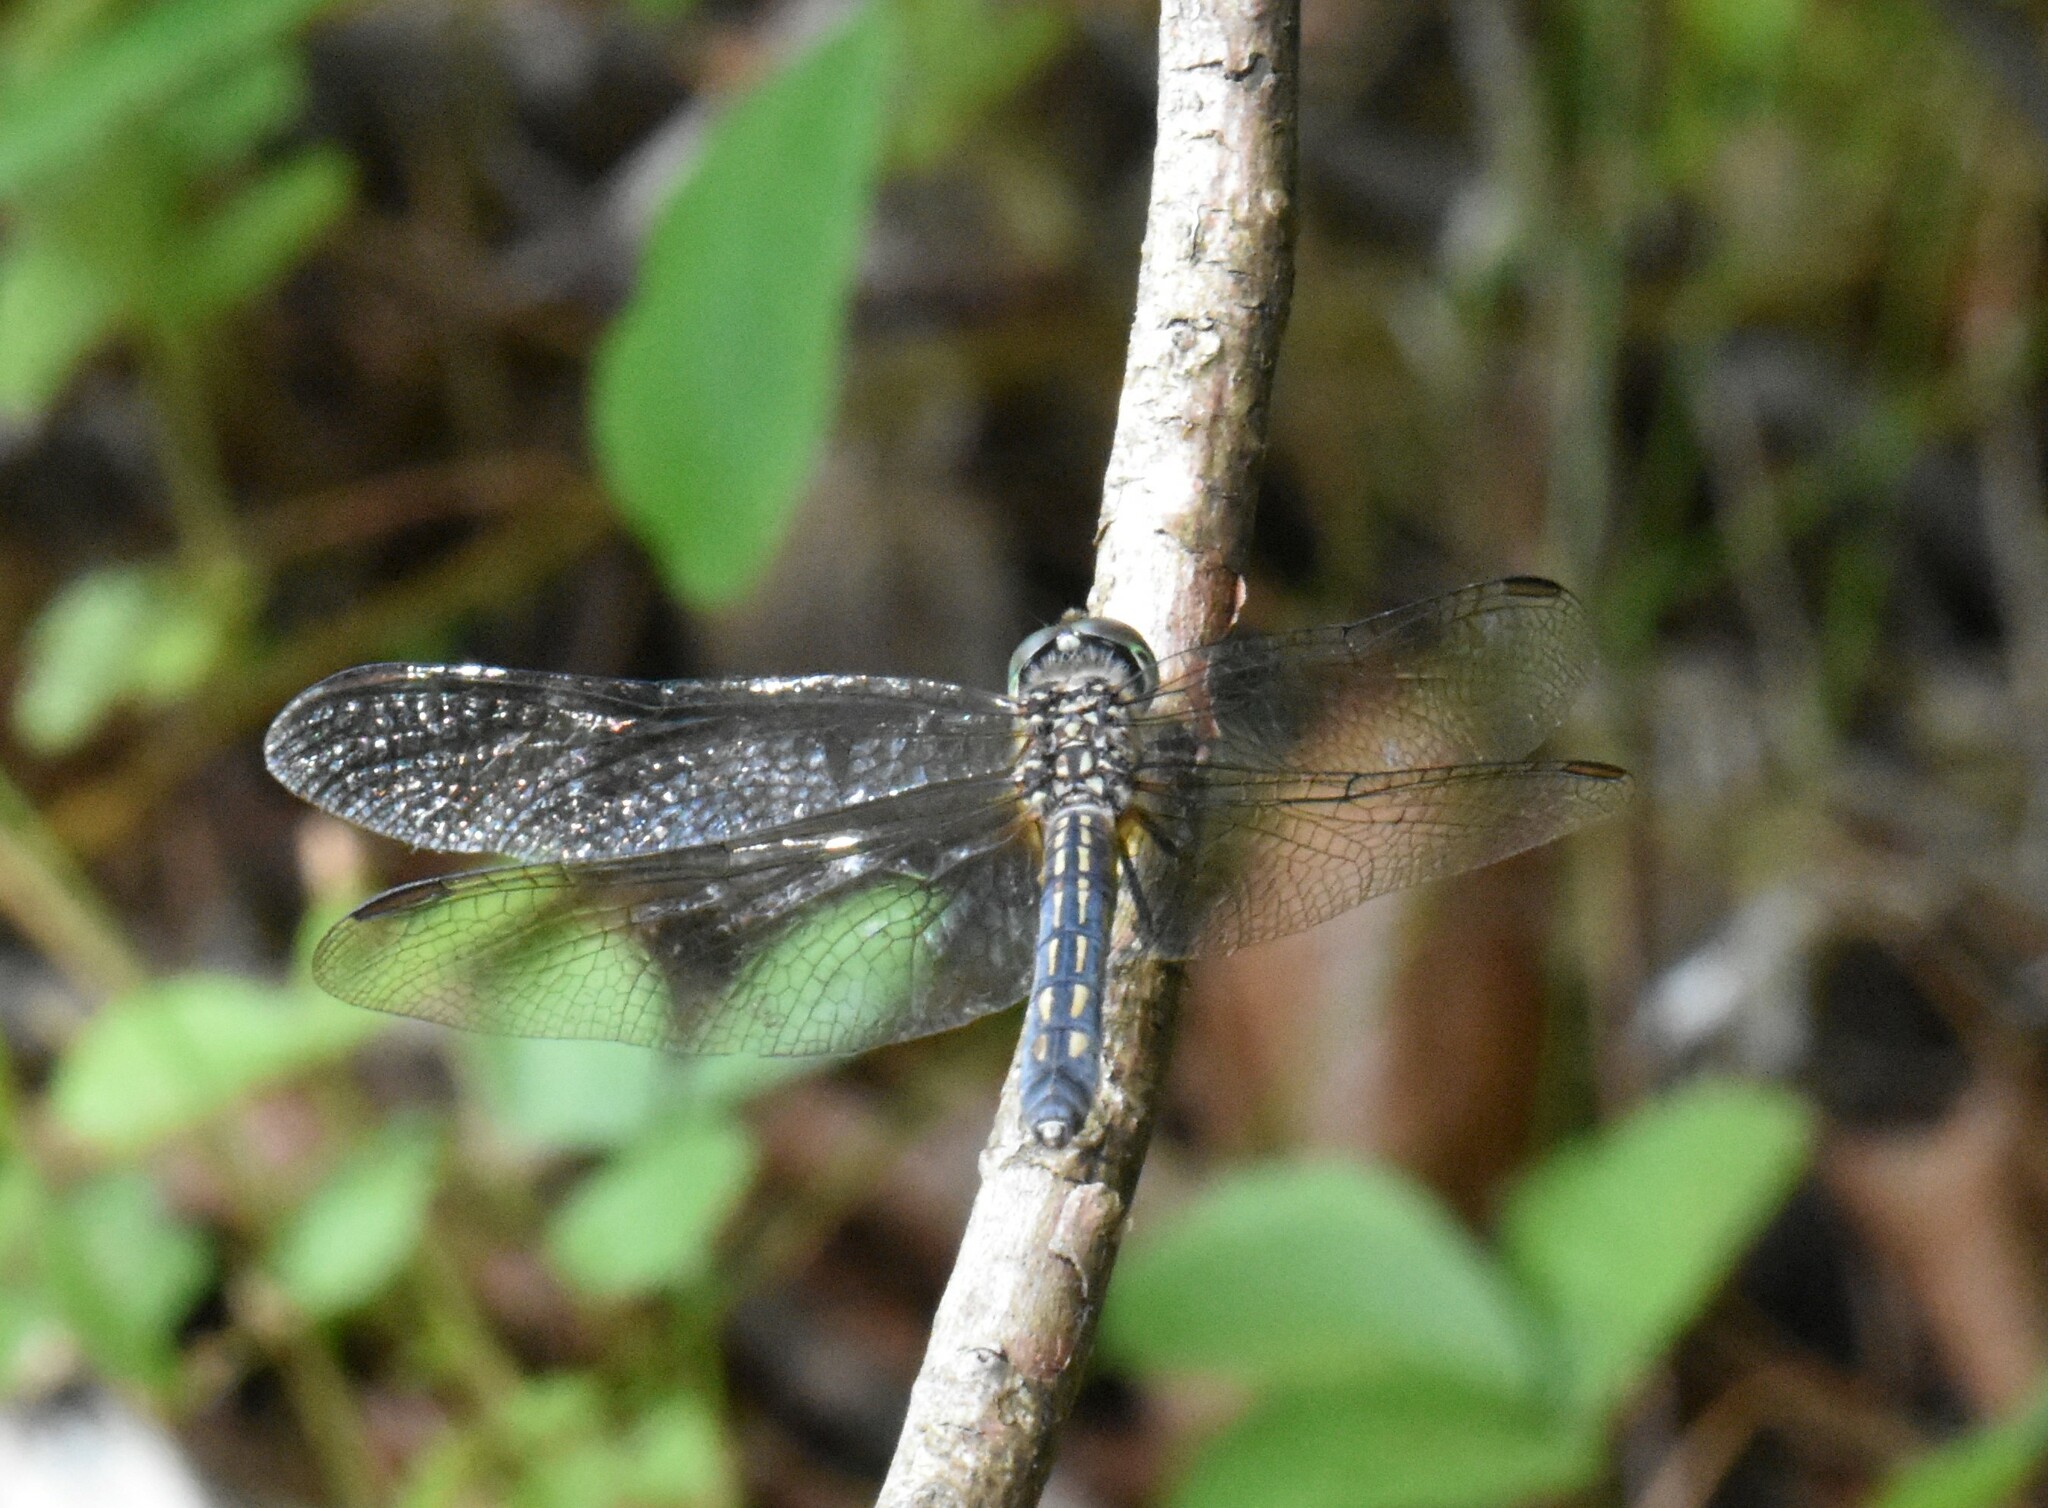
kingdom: Animalia
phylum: Arthropoda
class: Insecta
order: Odonata
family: Libellulidae
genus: Pachydiplax
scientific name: Pachydiplax longipennis
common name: Blue dasher
